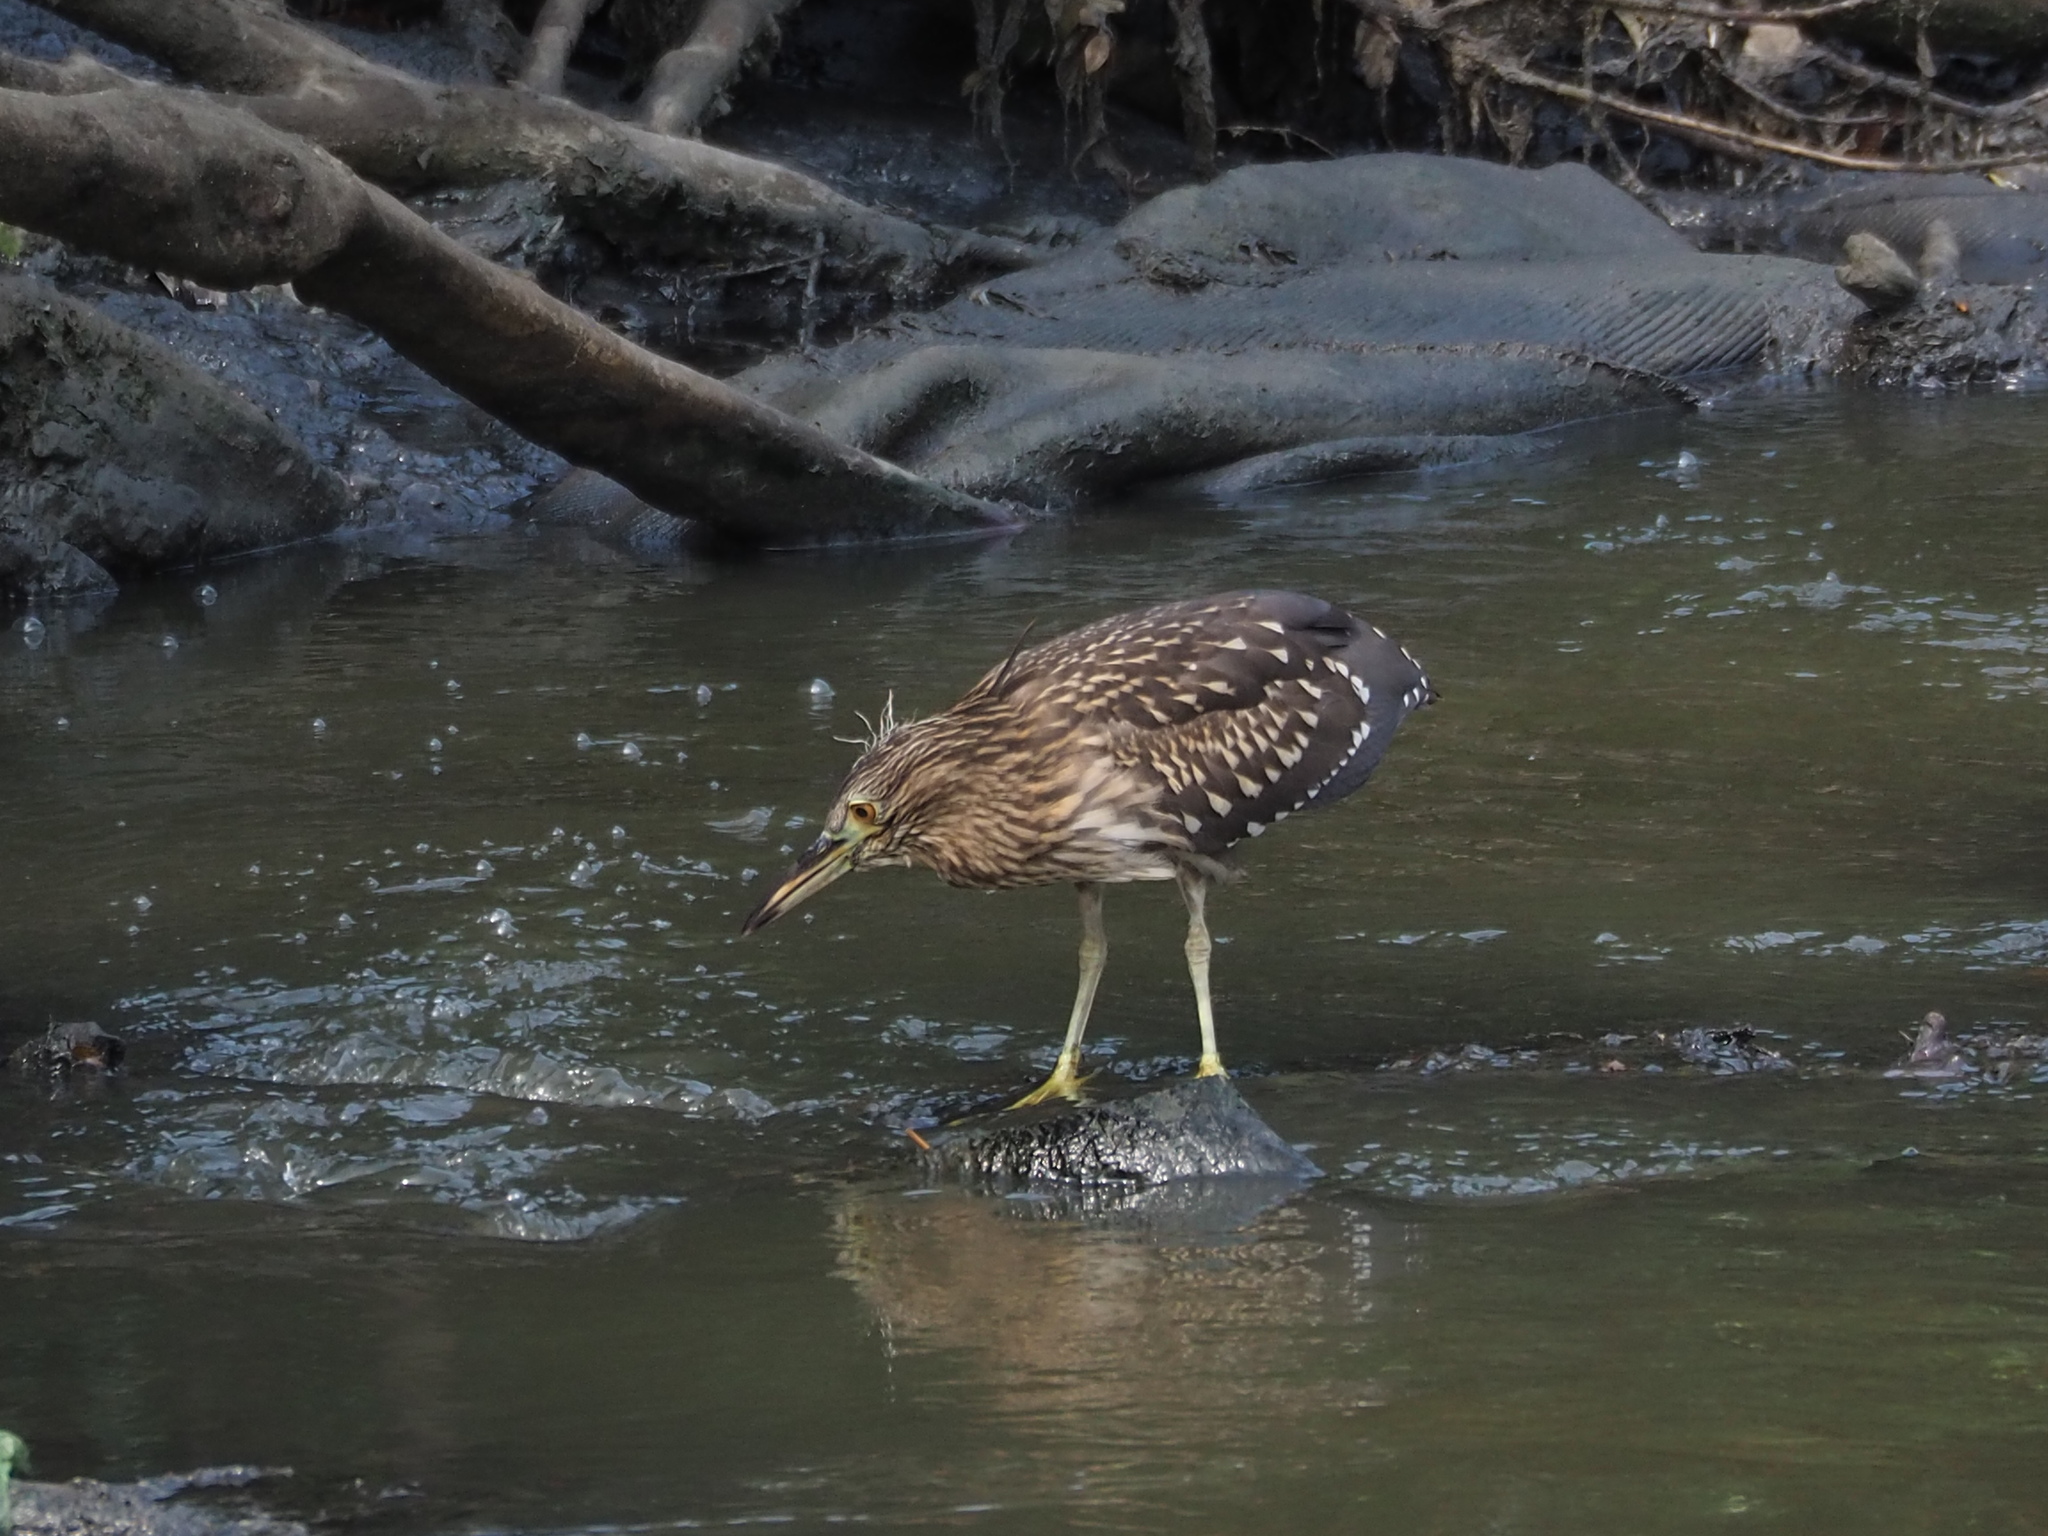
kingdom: Animalia
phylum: Chordata
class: Aves
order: Pelecaniformes
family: Ardeidae
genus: Nycticorax
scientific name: Nycticorax nycticorax
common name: Black-crowned night heron
